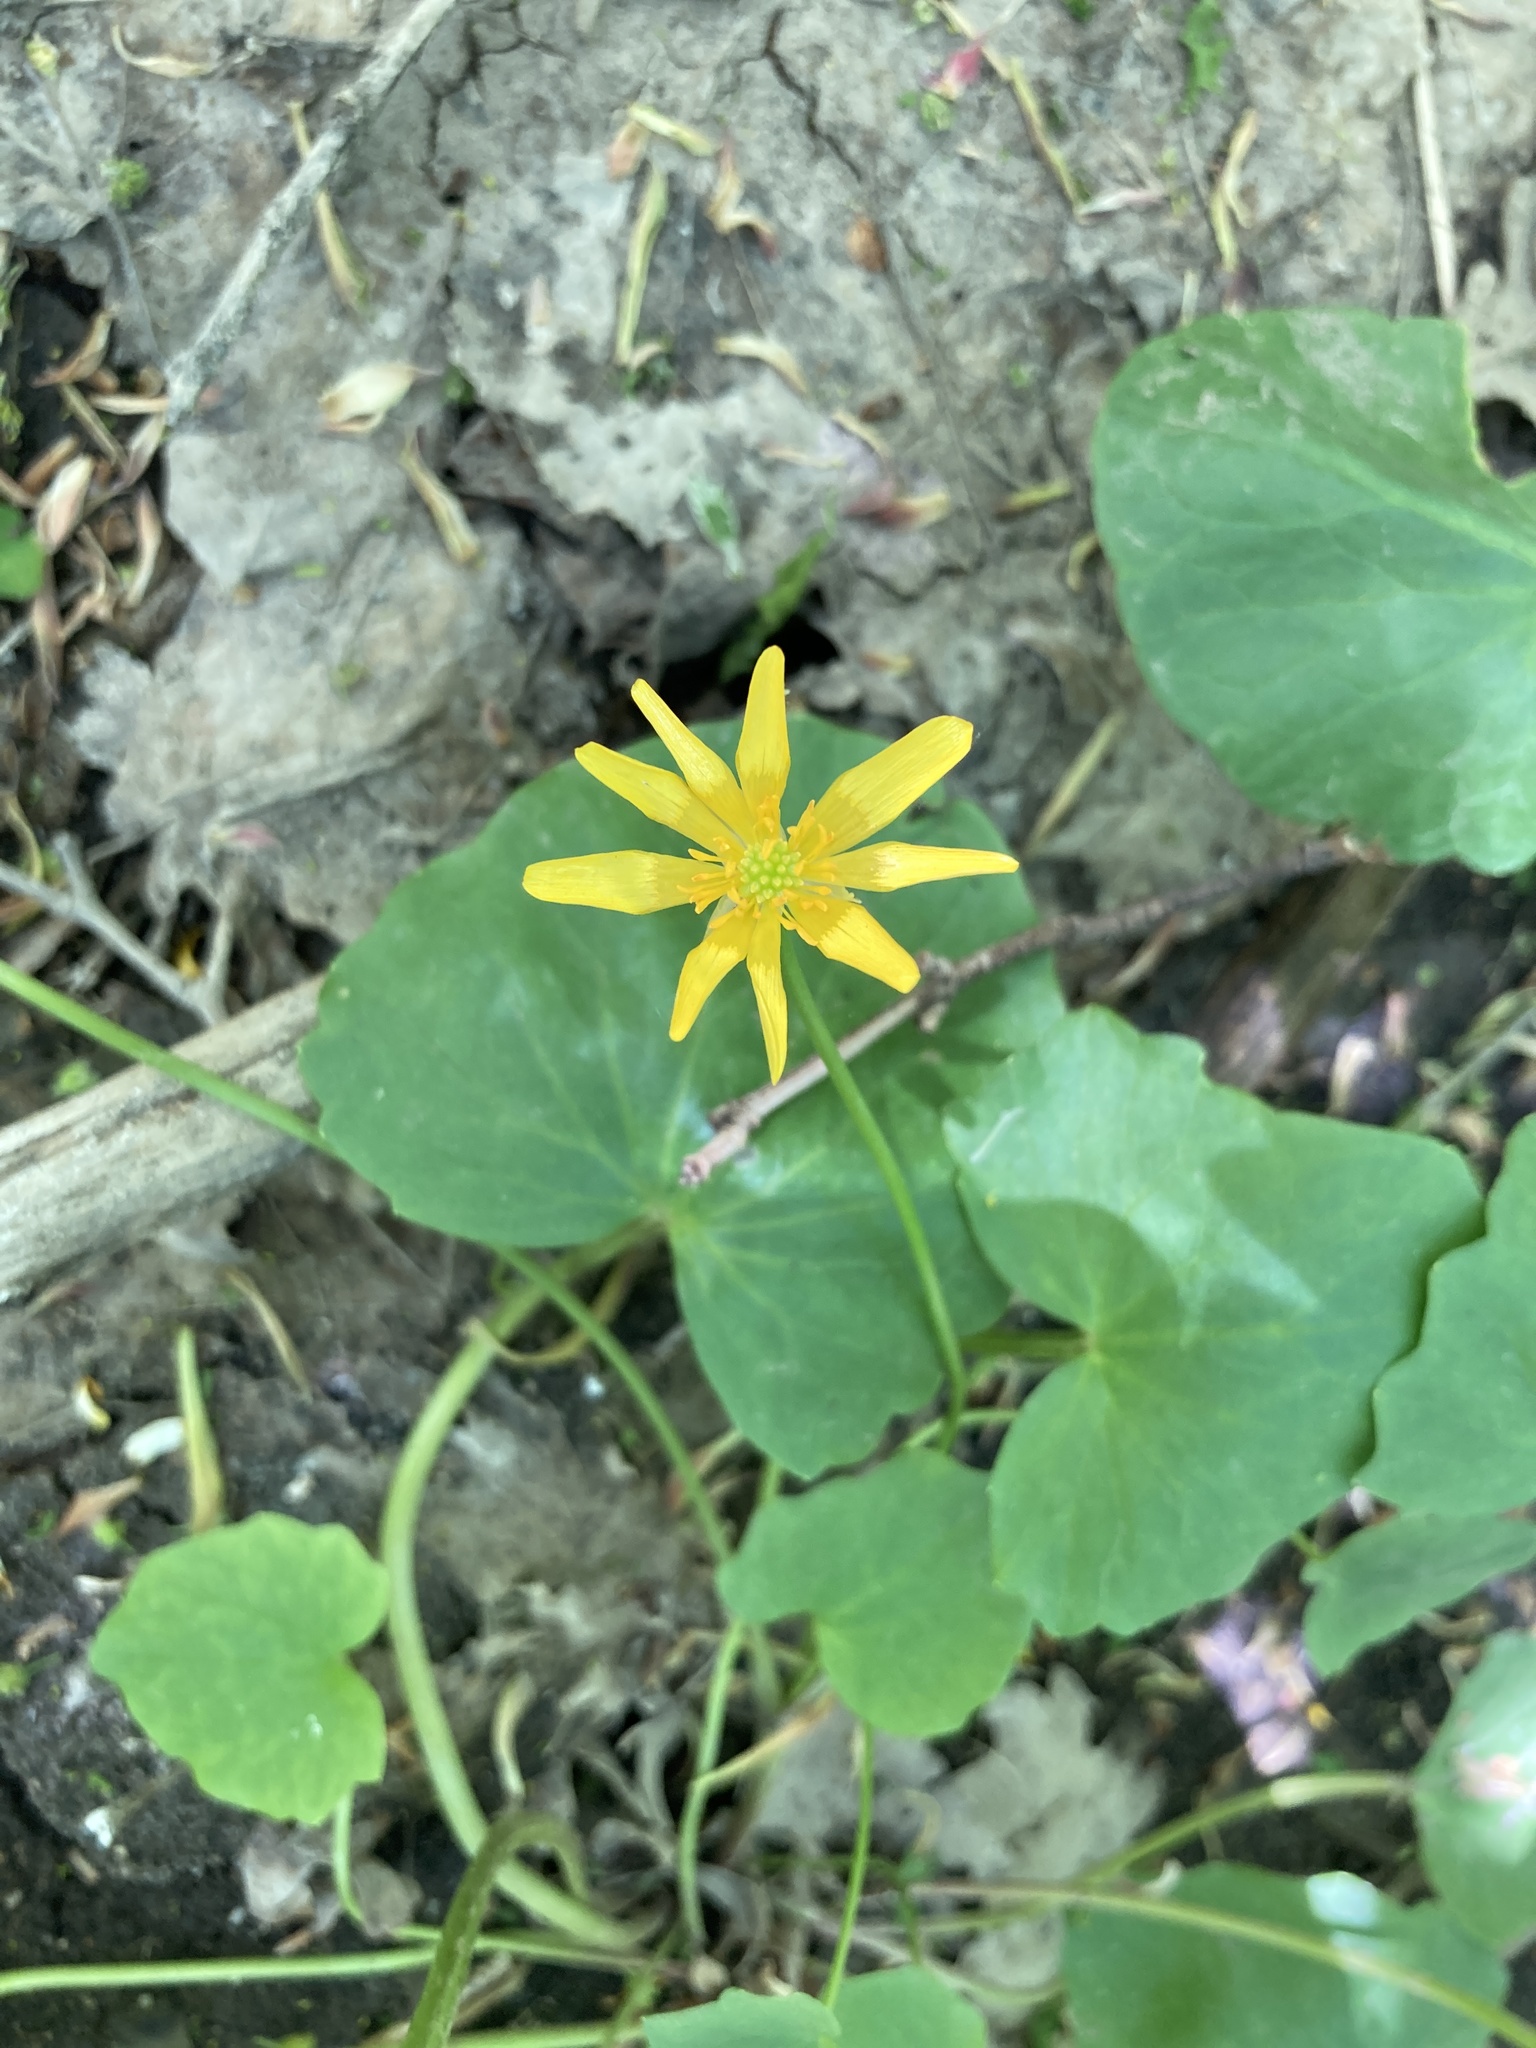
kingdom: Plantae
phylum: Tracheophyta
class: Magnoliopsida
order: Ranunculales
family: Ranunculaceae
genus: Ficaria
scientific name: Ficaria verna
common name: Lesser celandine
